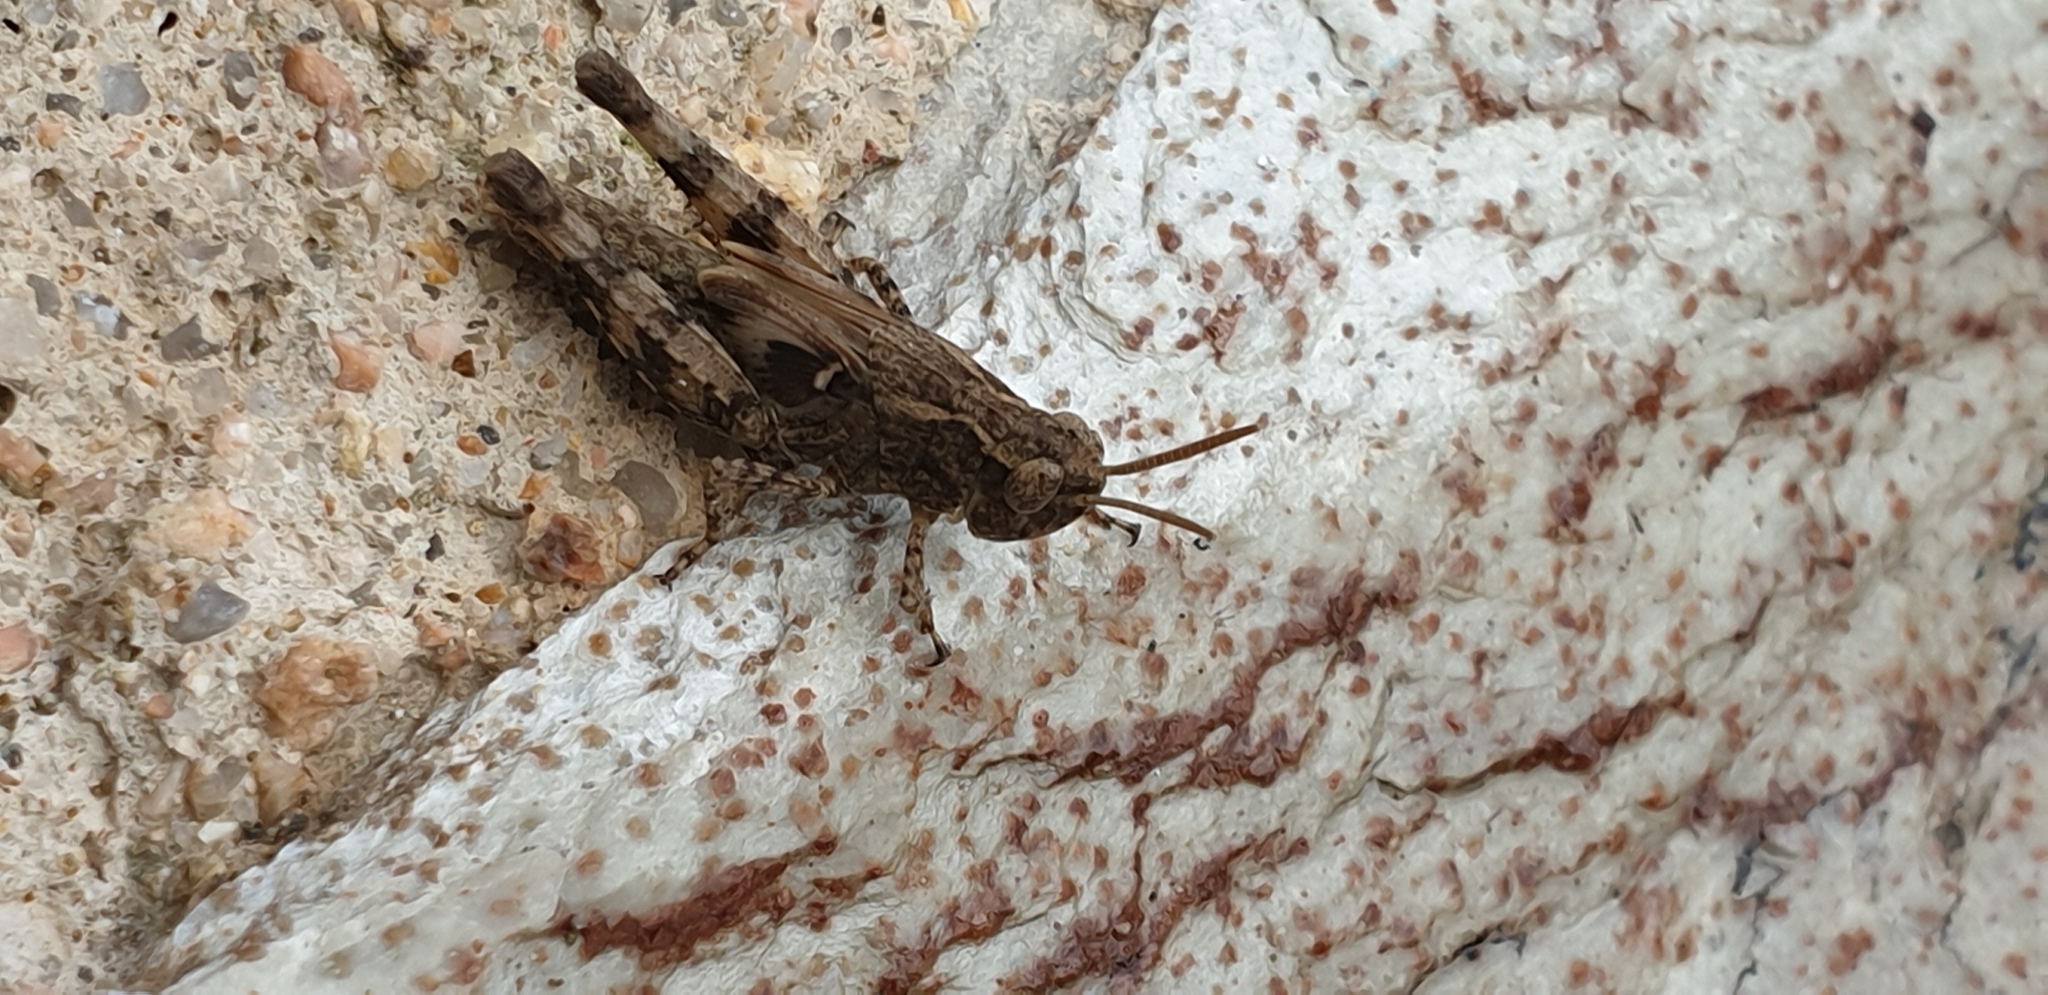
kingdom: Animalia
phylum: Arthropoda
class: Insecta
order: Orthoptera
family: Acrididae
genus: Aiolopus
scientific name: Aiolopus strepens
